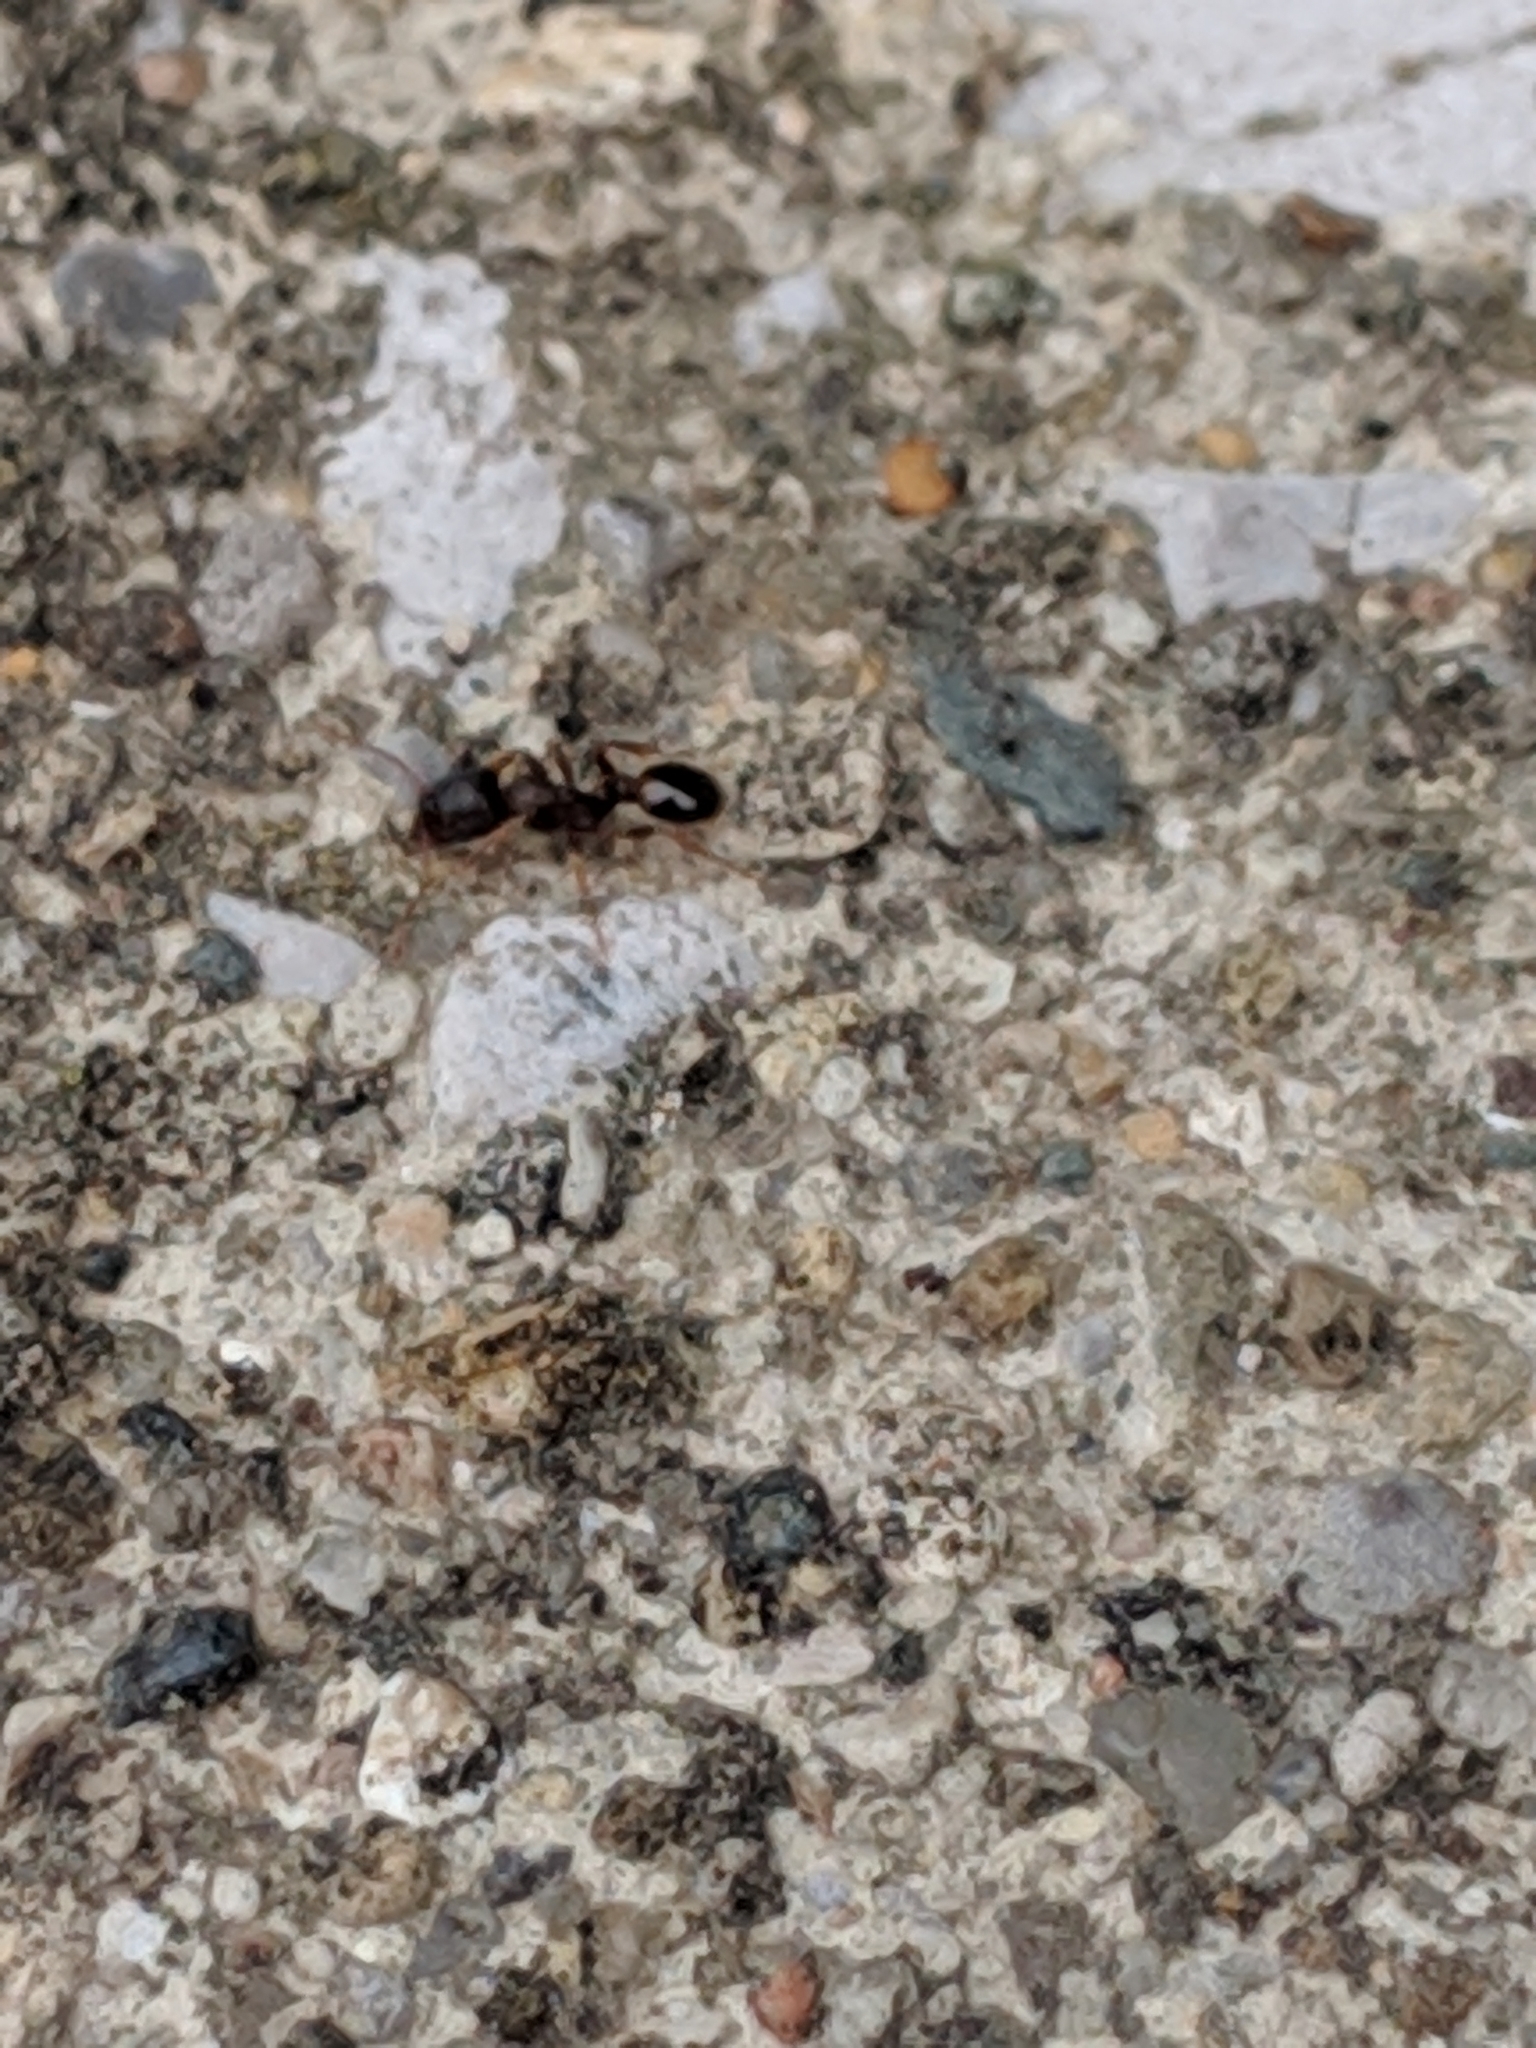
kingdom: Animalia
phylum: Arthropoda
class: Insecta
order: Hymenoptera
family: Formicidae
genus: Tetramorium
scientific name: Tetramorium immigrans
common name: Pavement ant
